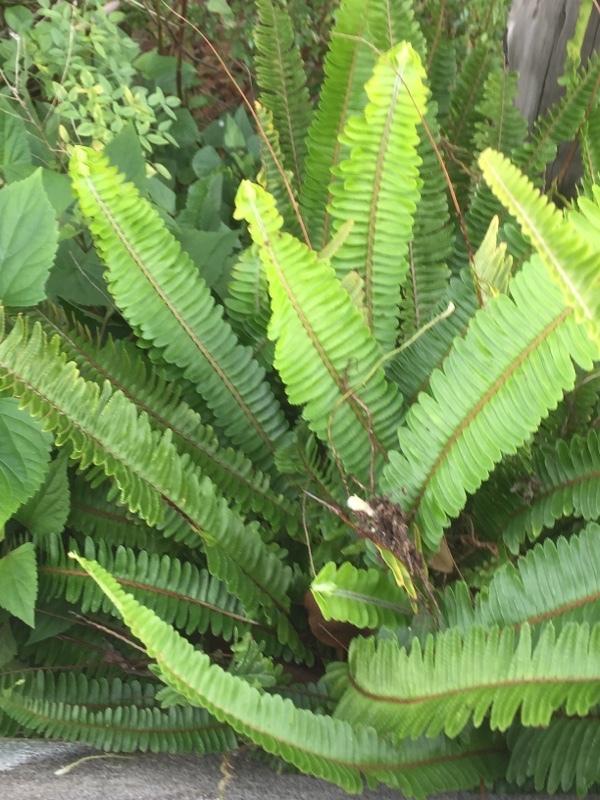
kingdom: Plantae
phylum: Tracheophyta
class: Polypodiopsida
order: Polypodiales
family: Nephrolepidaceae
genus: Nephrolepis
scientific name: Nephrolepis exaltata
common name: Sword fern
